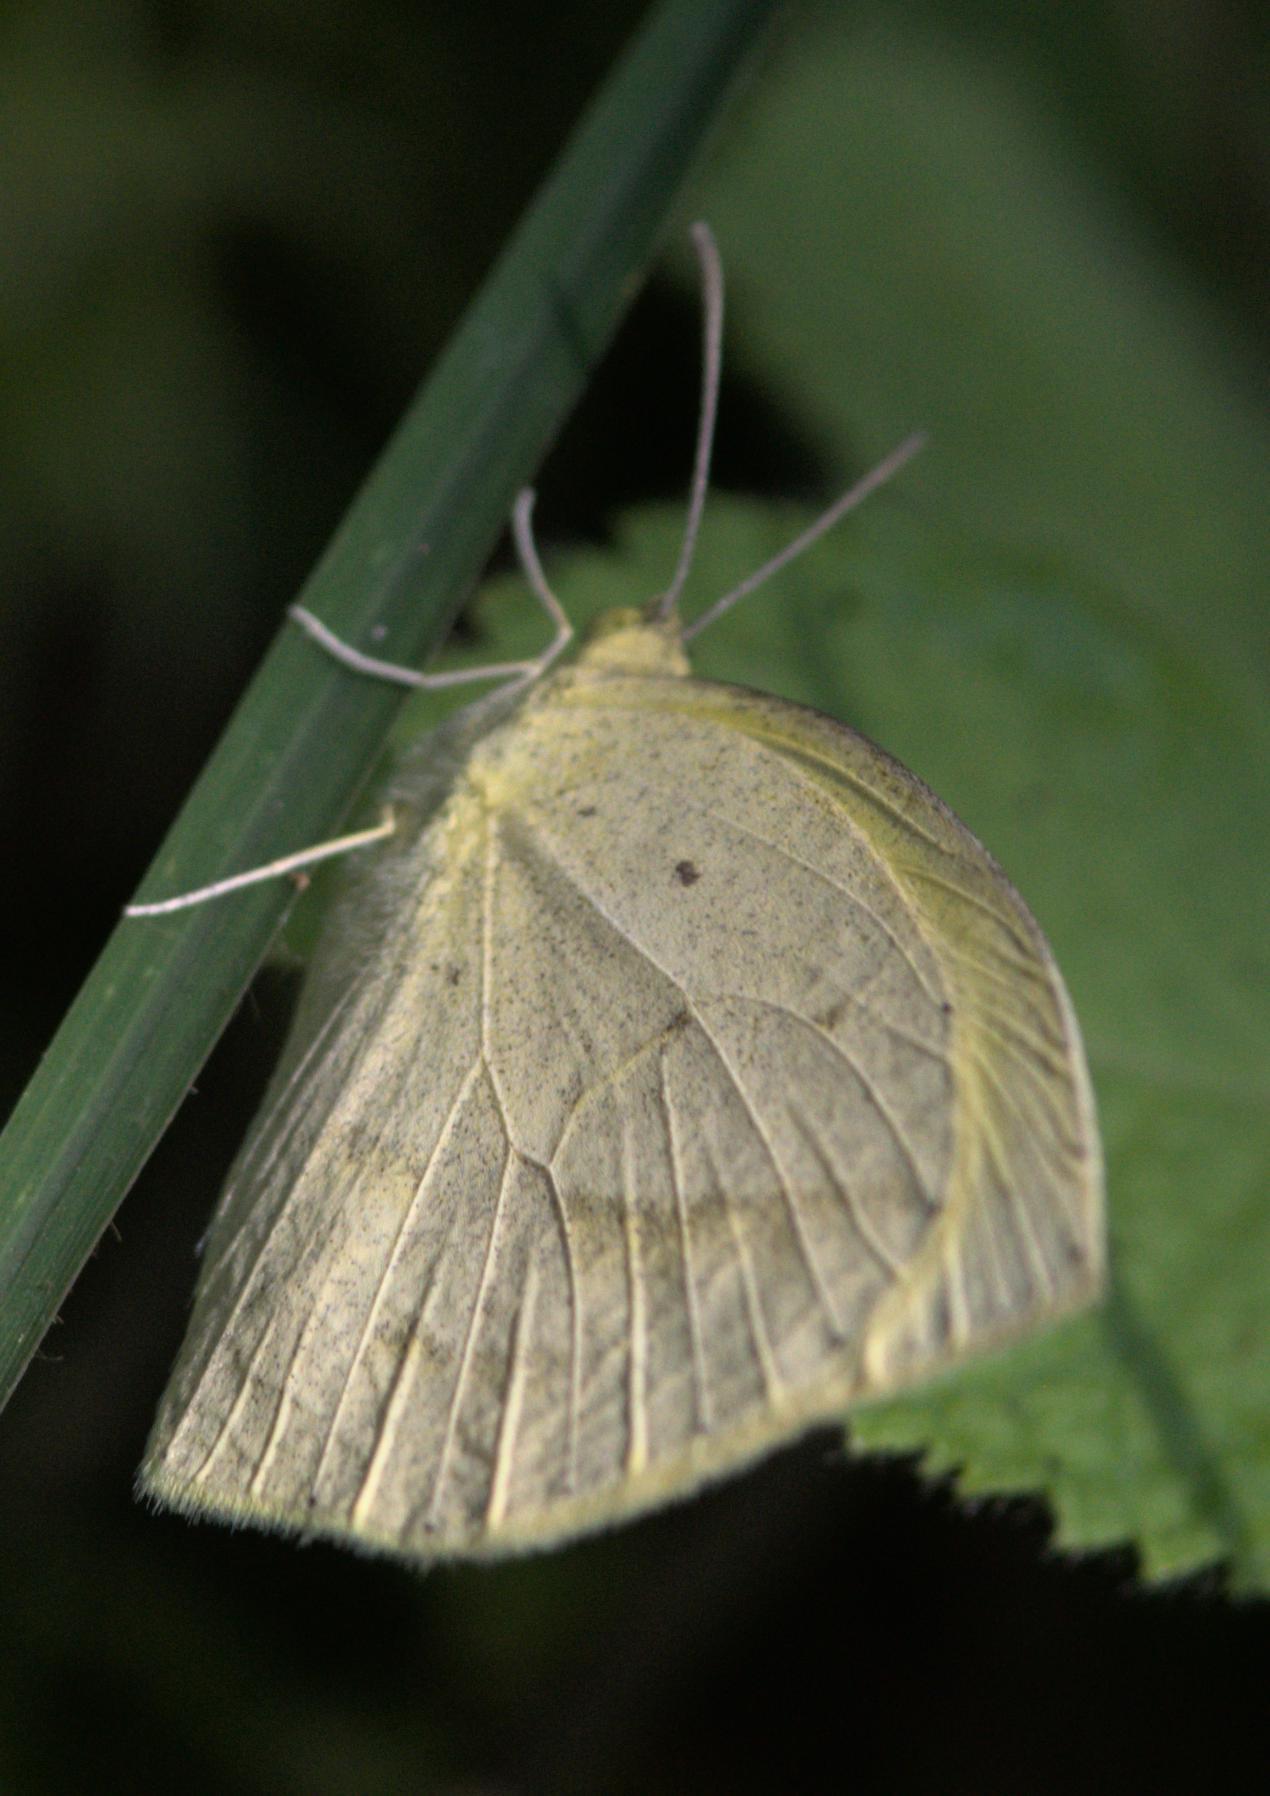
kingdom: Animalia
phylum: Arthropoda
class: Insecta
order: Lepidoptera
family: Pieridae
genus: Eurema
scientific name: Eurema laeta
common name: Spotless grass yellow
